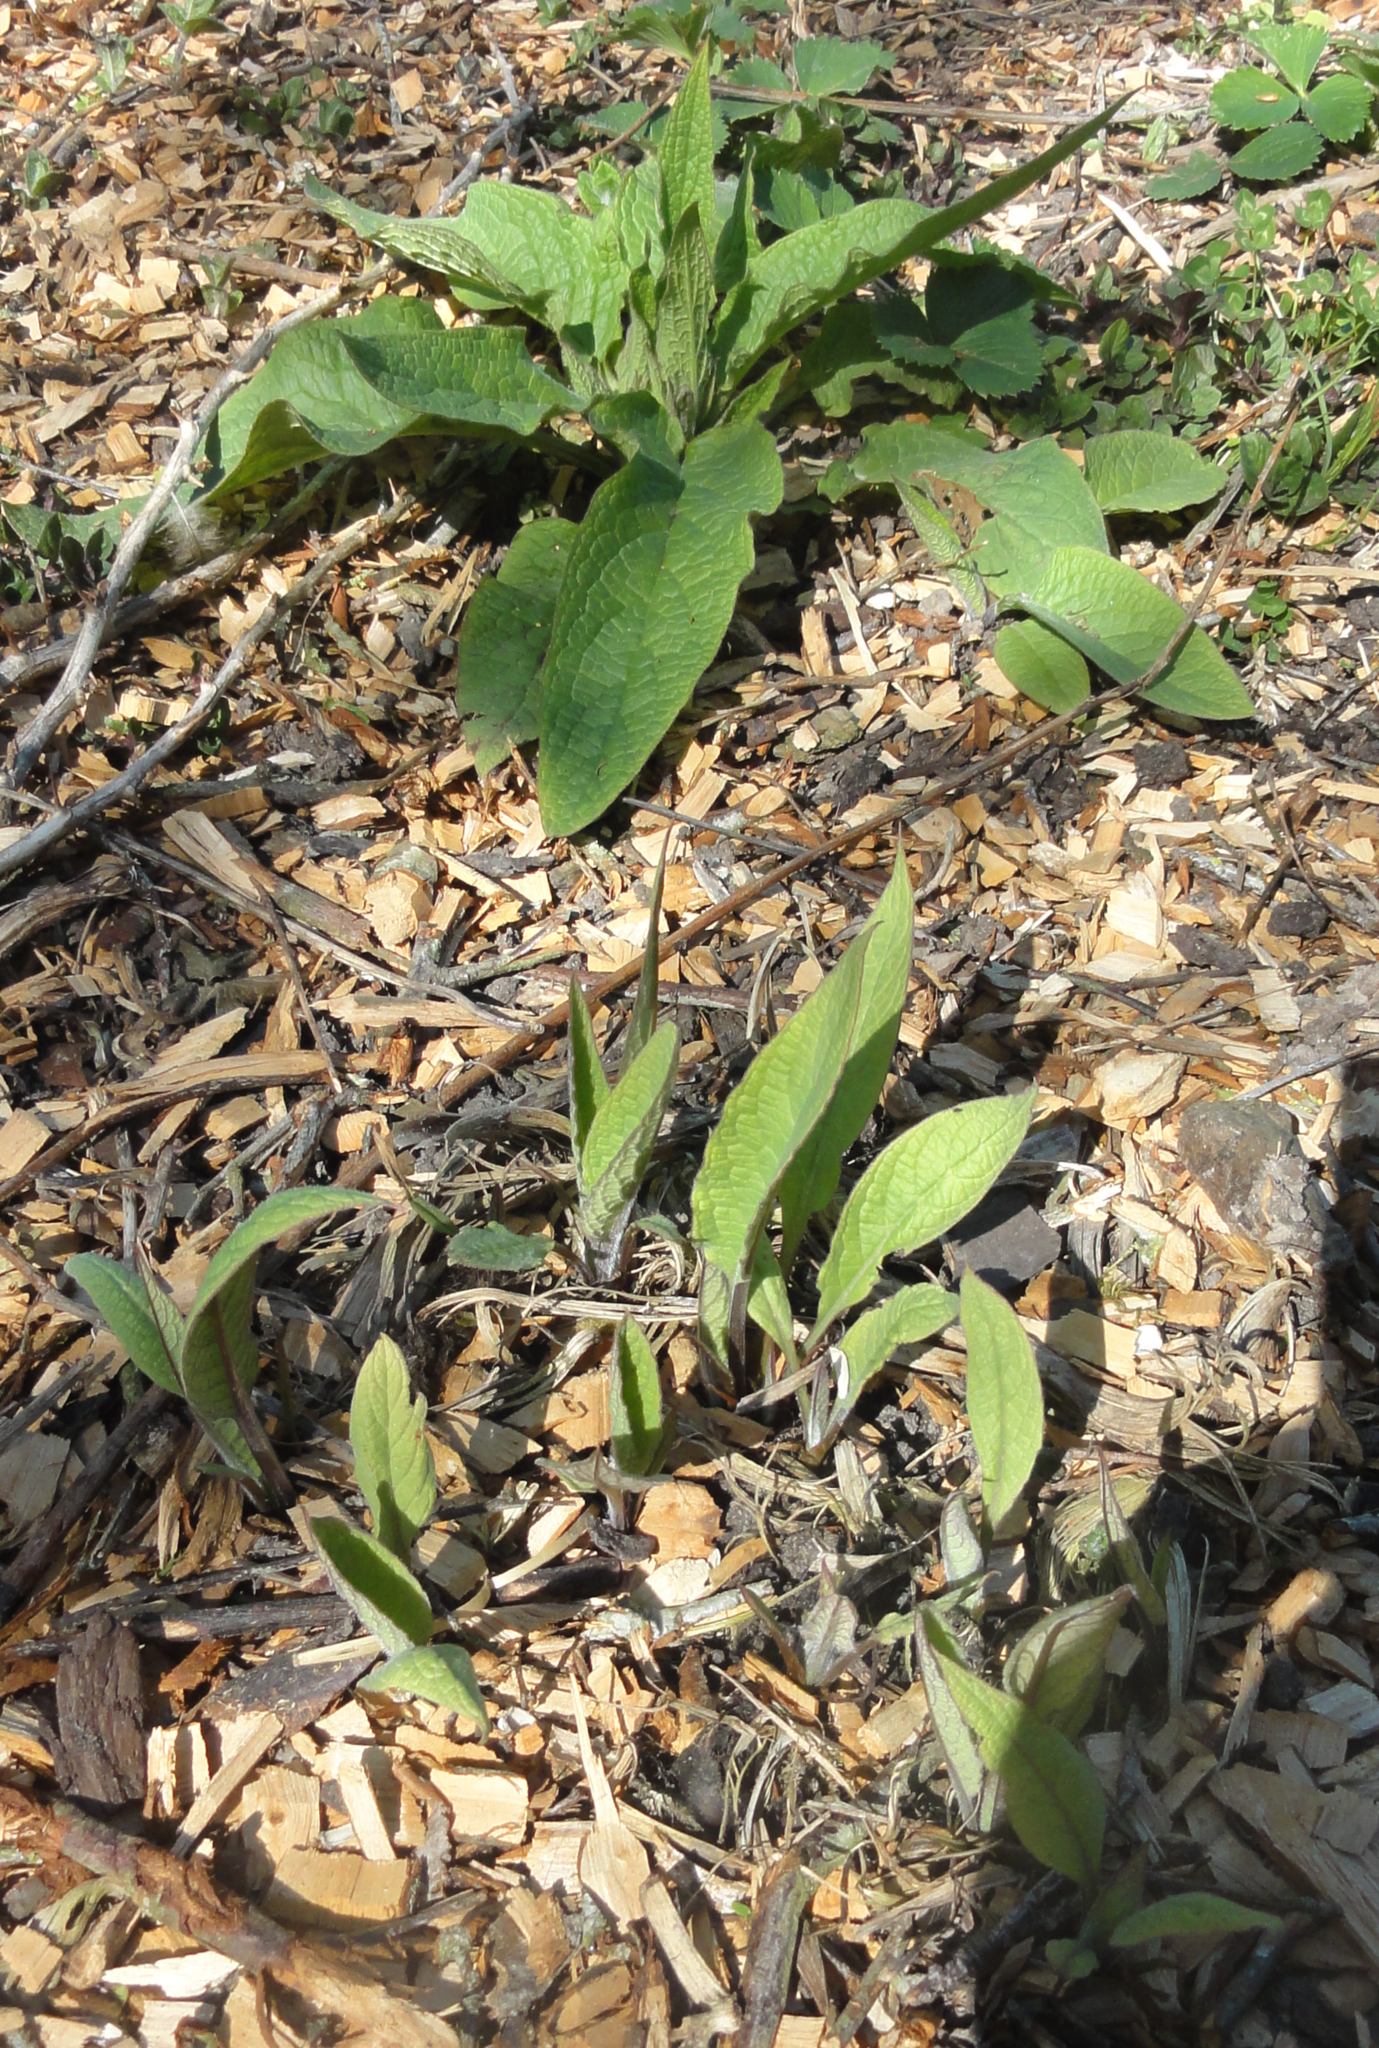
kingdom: Plantae
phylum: Tracheophyta
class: Magnoliopsida
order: Lamiales
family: Plantaginaceae
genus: Digitalis
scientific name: Digitalis purpurea
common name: Foxglove
